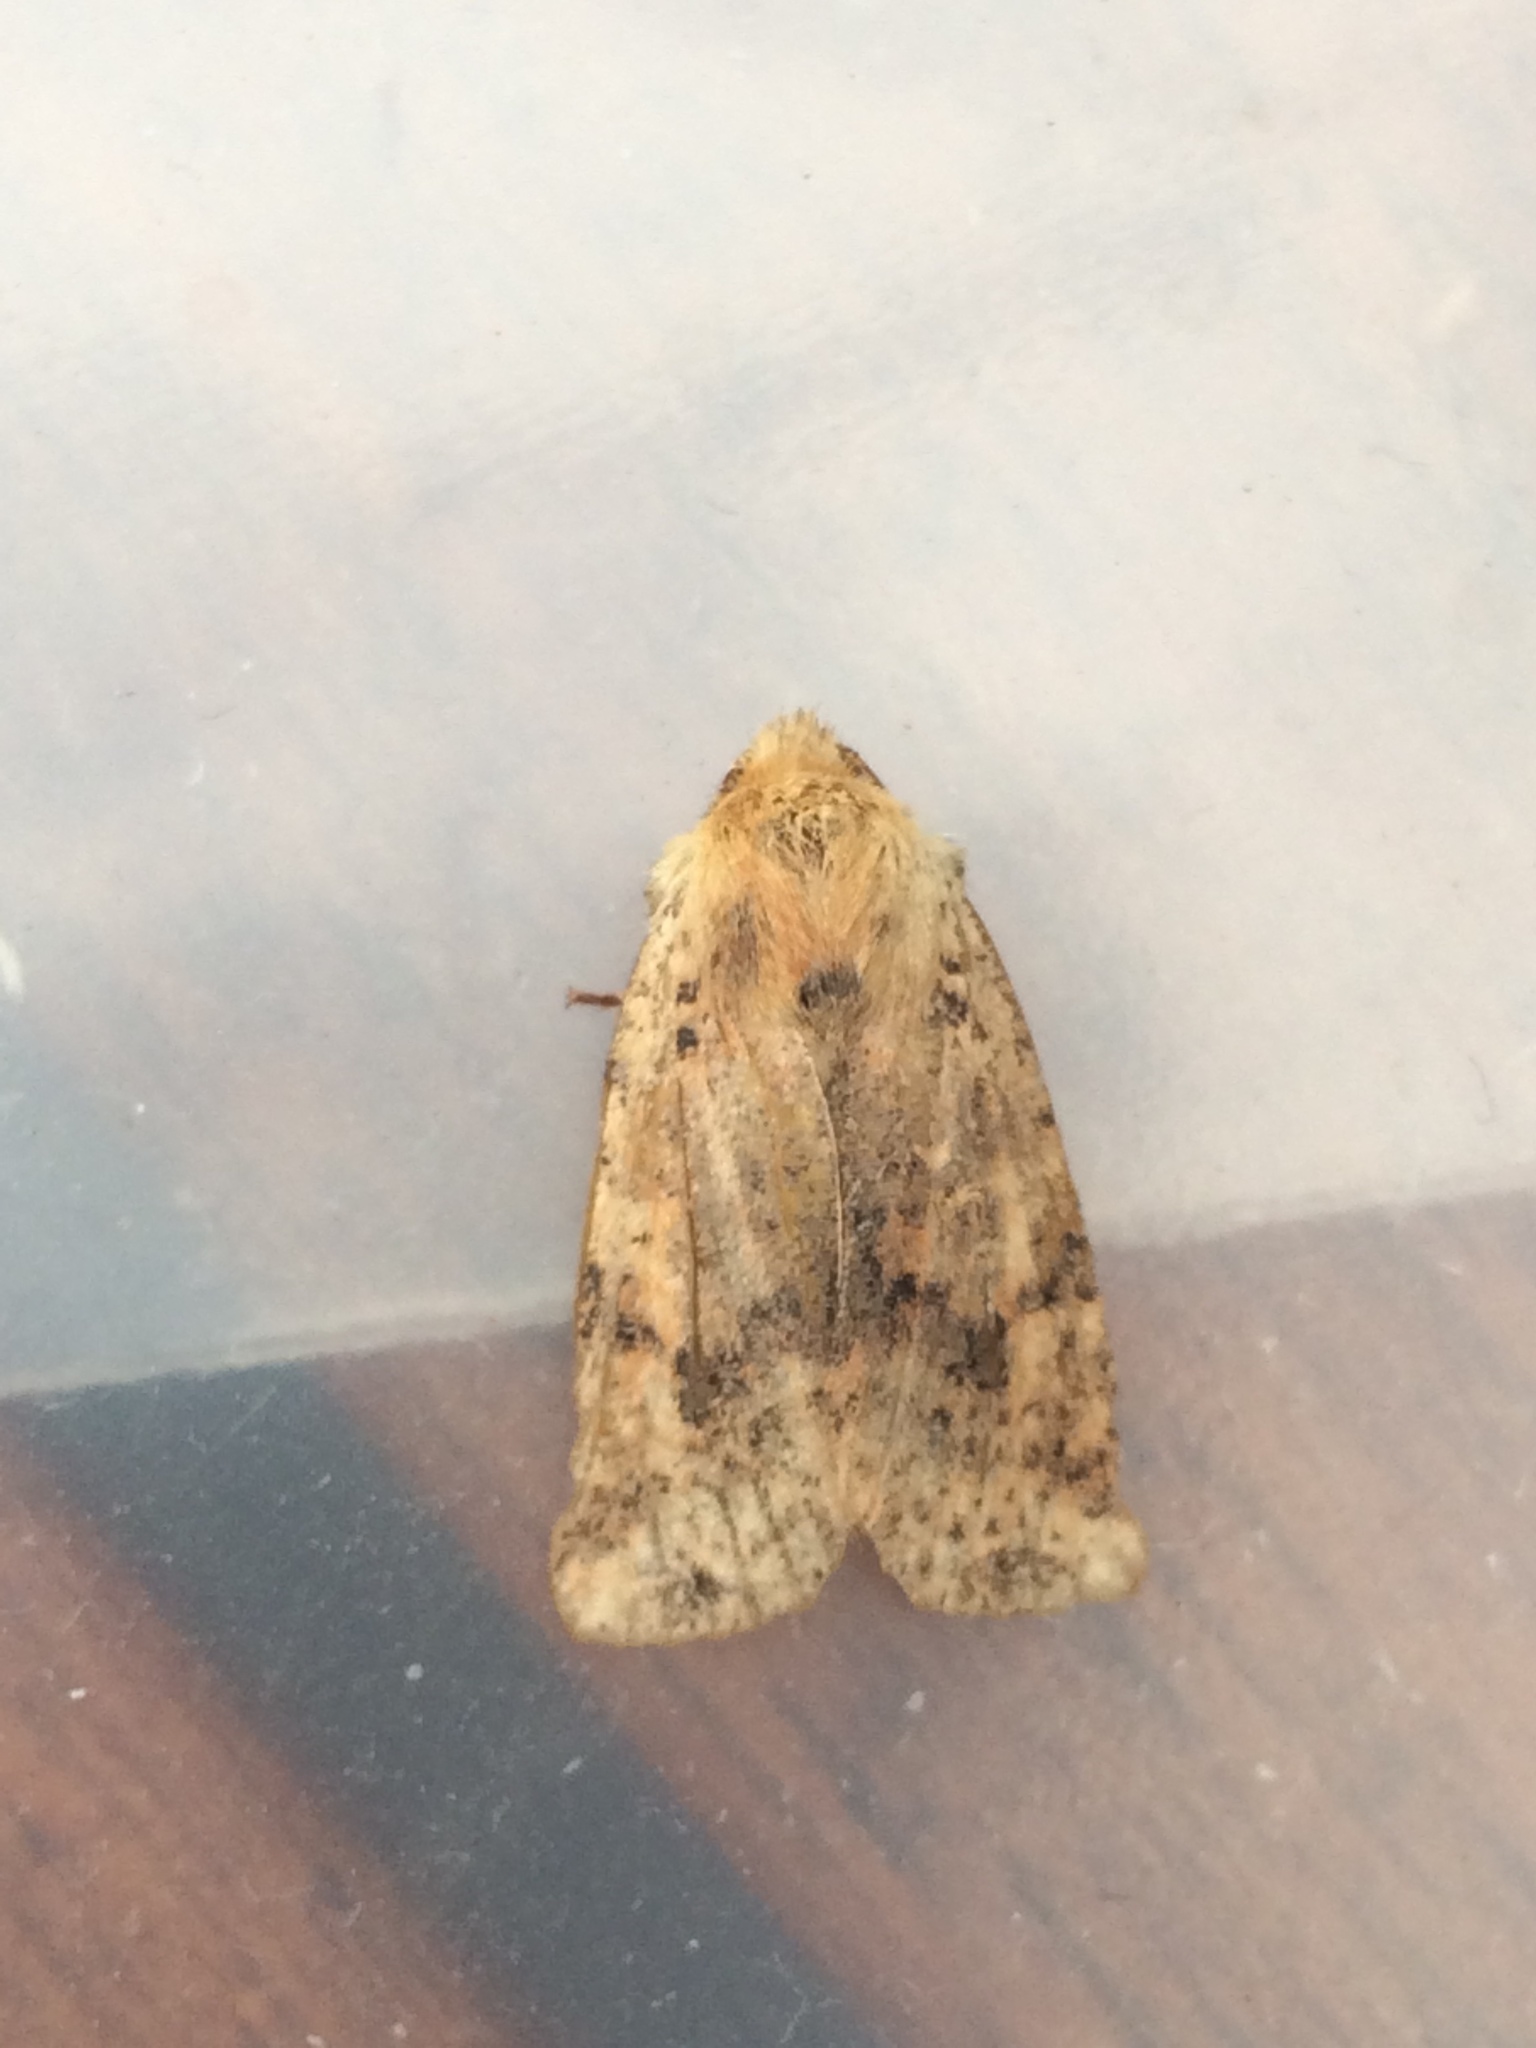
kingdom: Animalia
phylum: Arthropoda
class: Insecta
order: Lepidoptera
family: Noctuidae
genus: Conistra
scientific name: Conistra rubiginea
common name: Dotted chestnut
